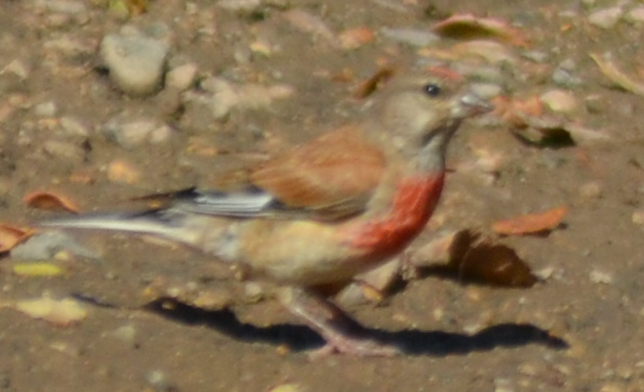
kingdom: Animalia
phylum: Chordata
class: Aves
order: Passeriformes
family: Fringillidae
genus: Linaria
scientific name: Linaria cannabina
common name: Common linnet
